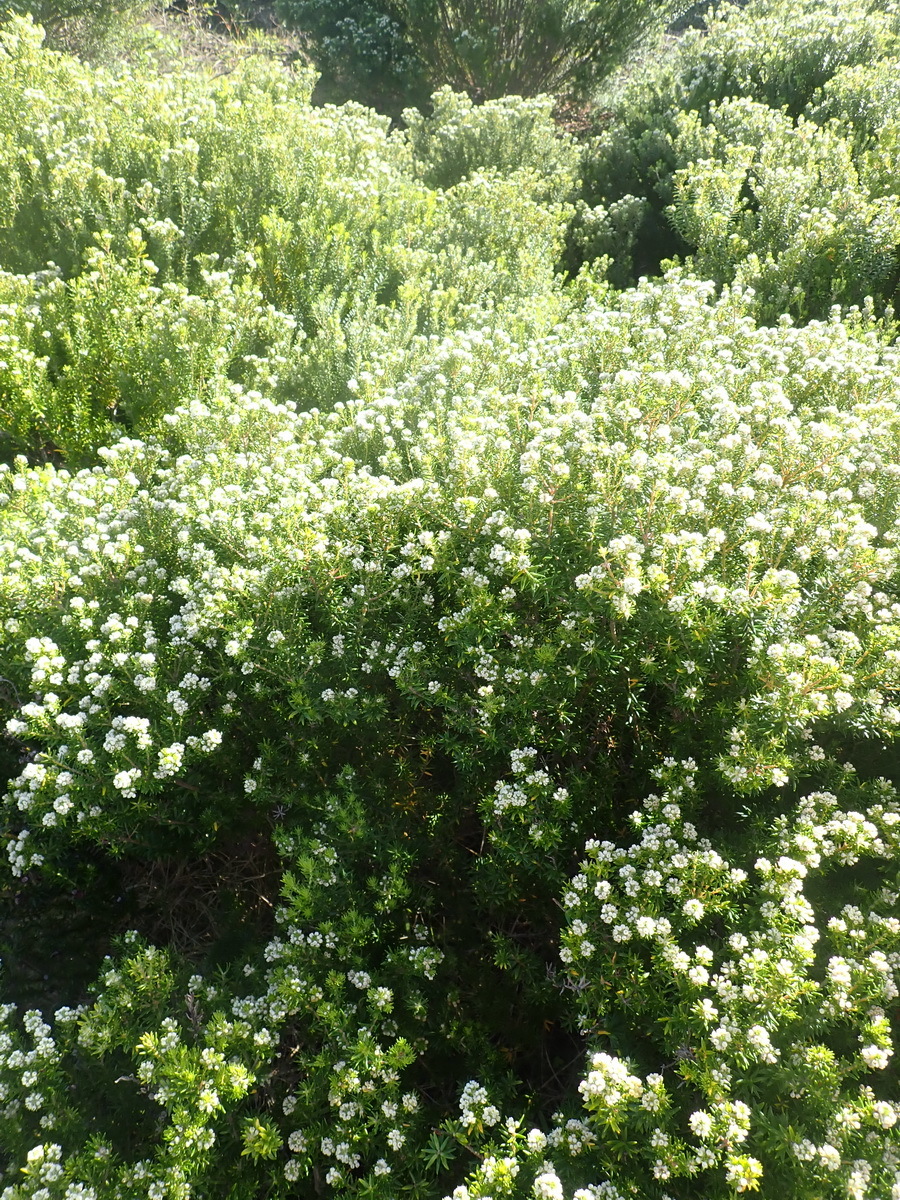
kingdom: Plantae
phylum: Tracheophyta
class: Magnoliopsida
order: Rosales
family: Rhamnaceae
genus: Phylica
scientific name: Phylica axillaris
